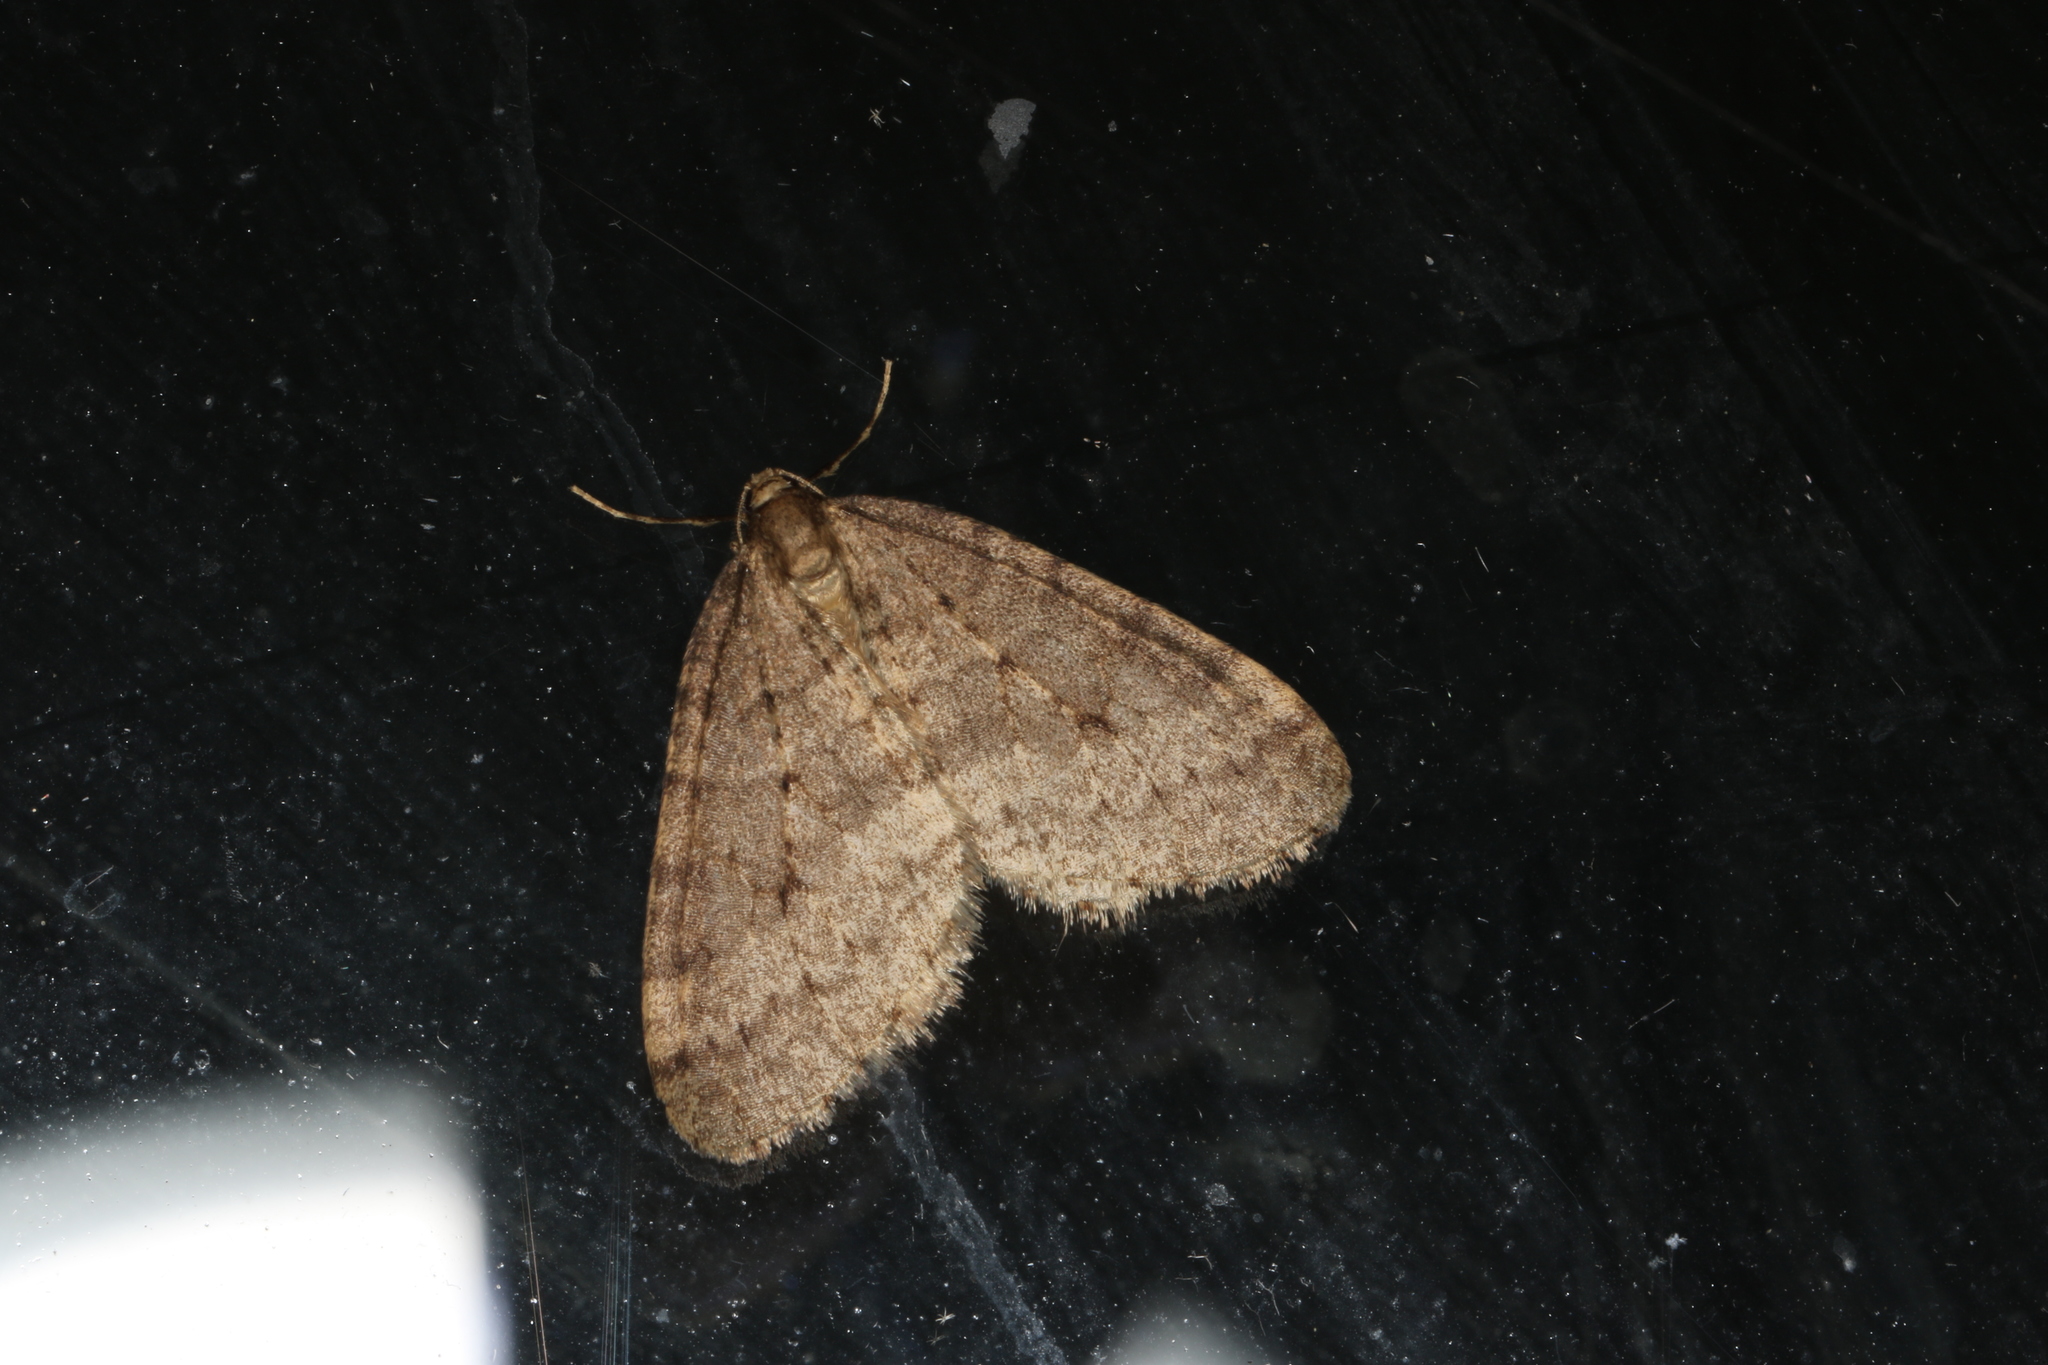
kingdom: Animalia
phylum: Arthropoda
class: Insecta
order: Lepidoptera
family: Geometridae
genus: Operophtera
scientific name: Operophtera brumata
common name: Winter moth
